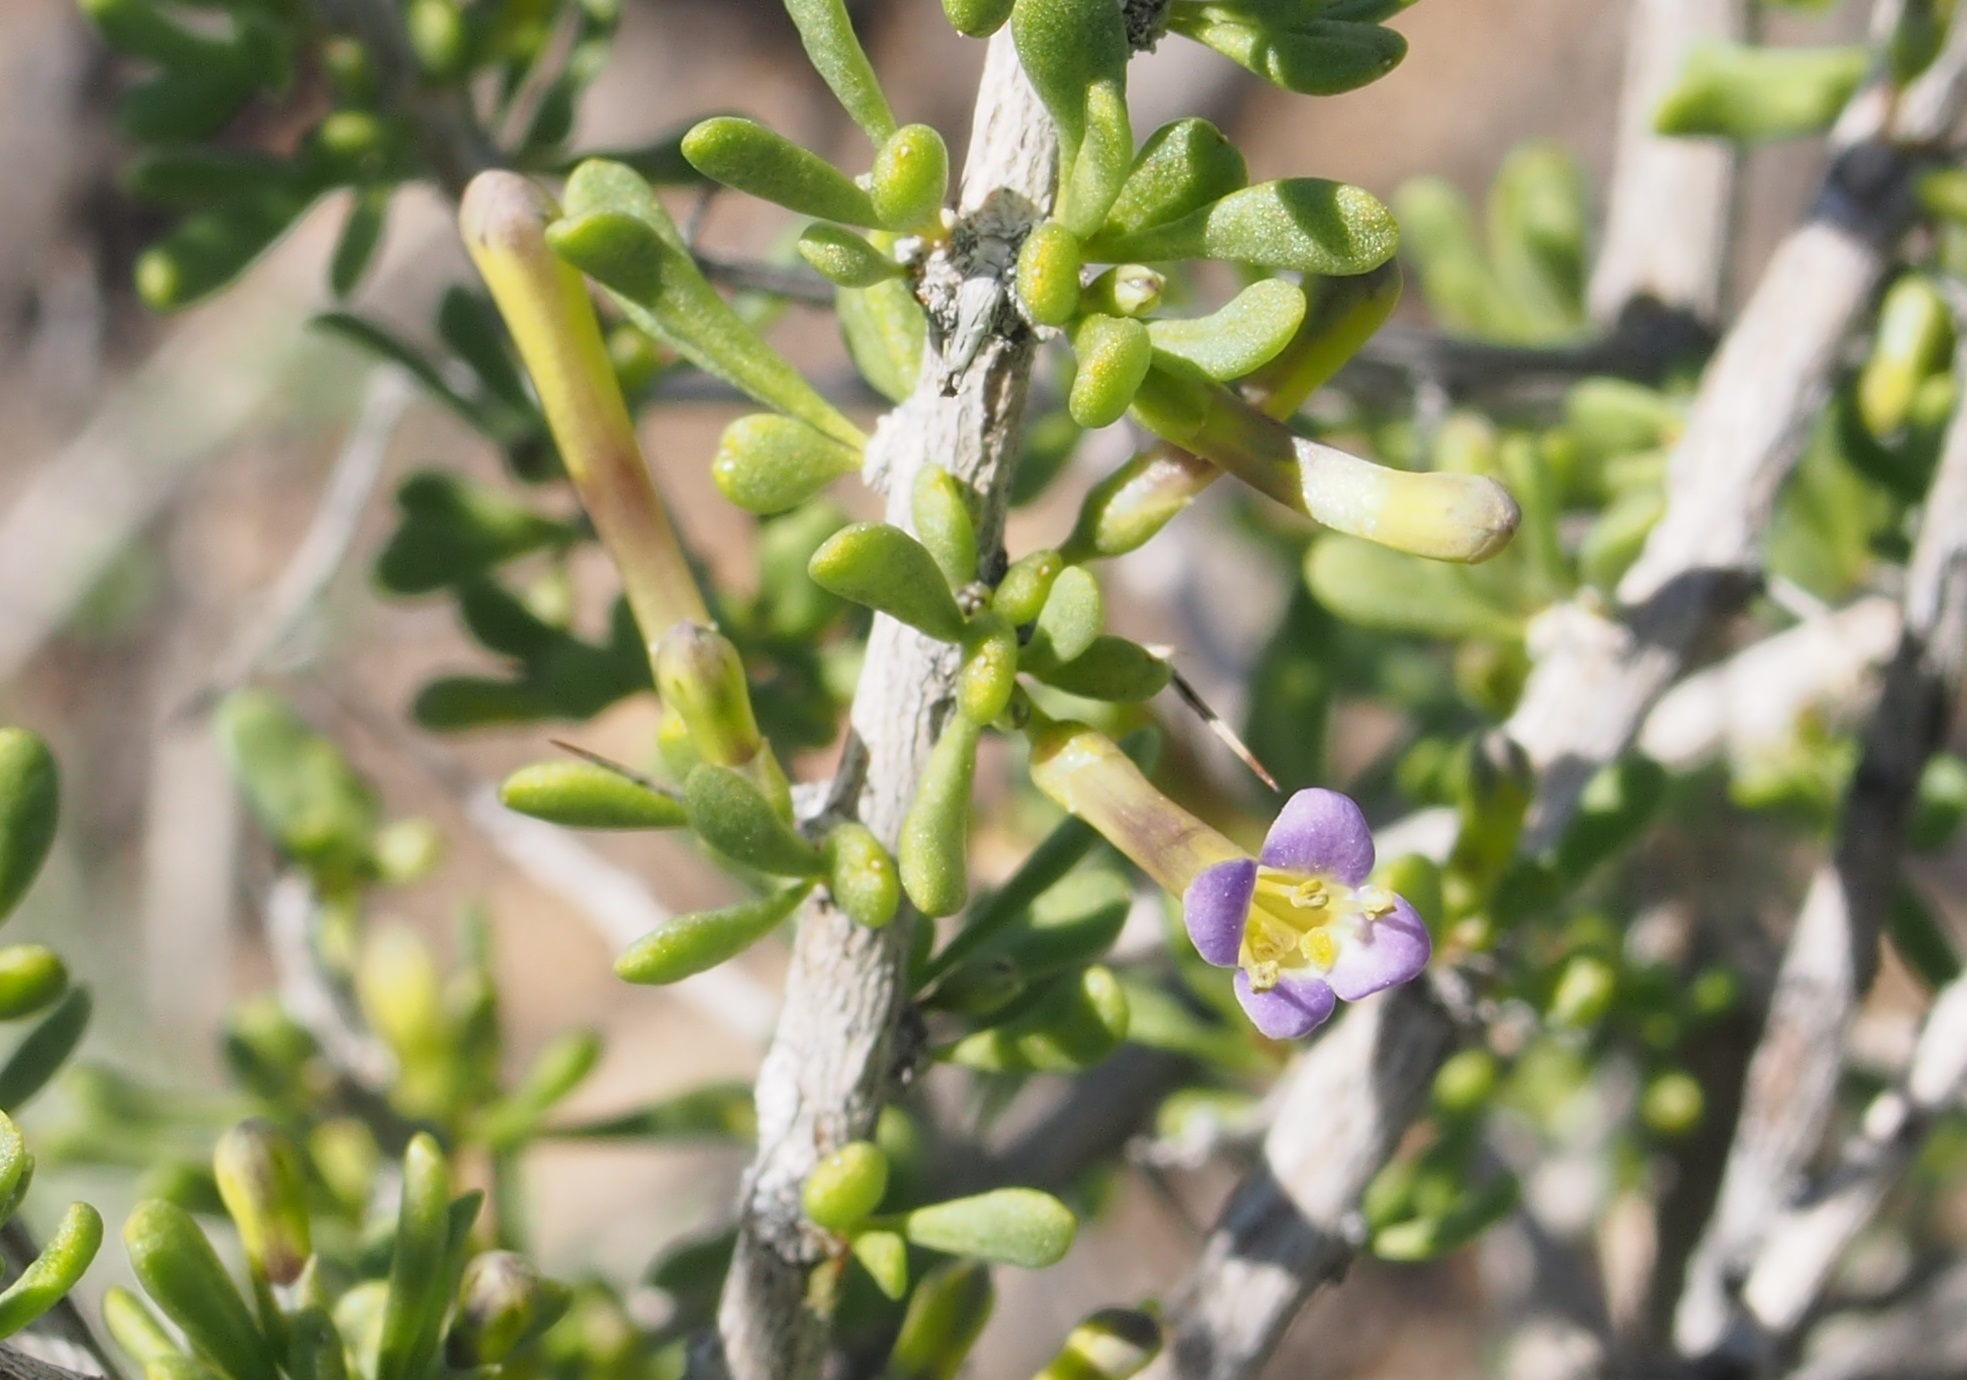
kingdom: Plantae
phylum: Tracheophyta
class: Magnoliopsida
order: Solanales
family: Solanaceae
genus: Lycium
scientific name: Lycium andersonii
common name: Water-jacket
